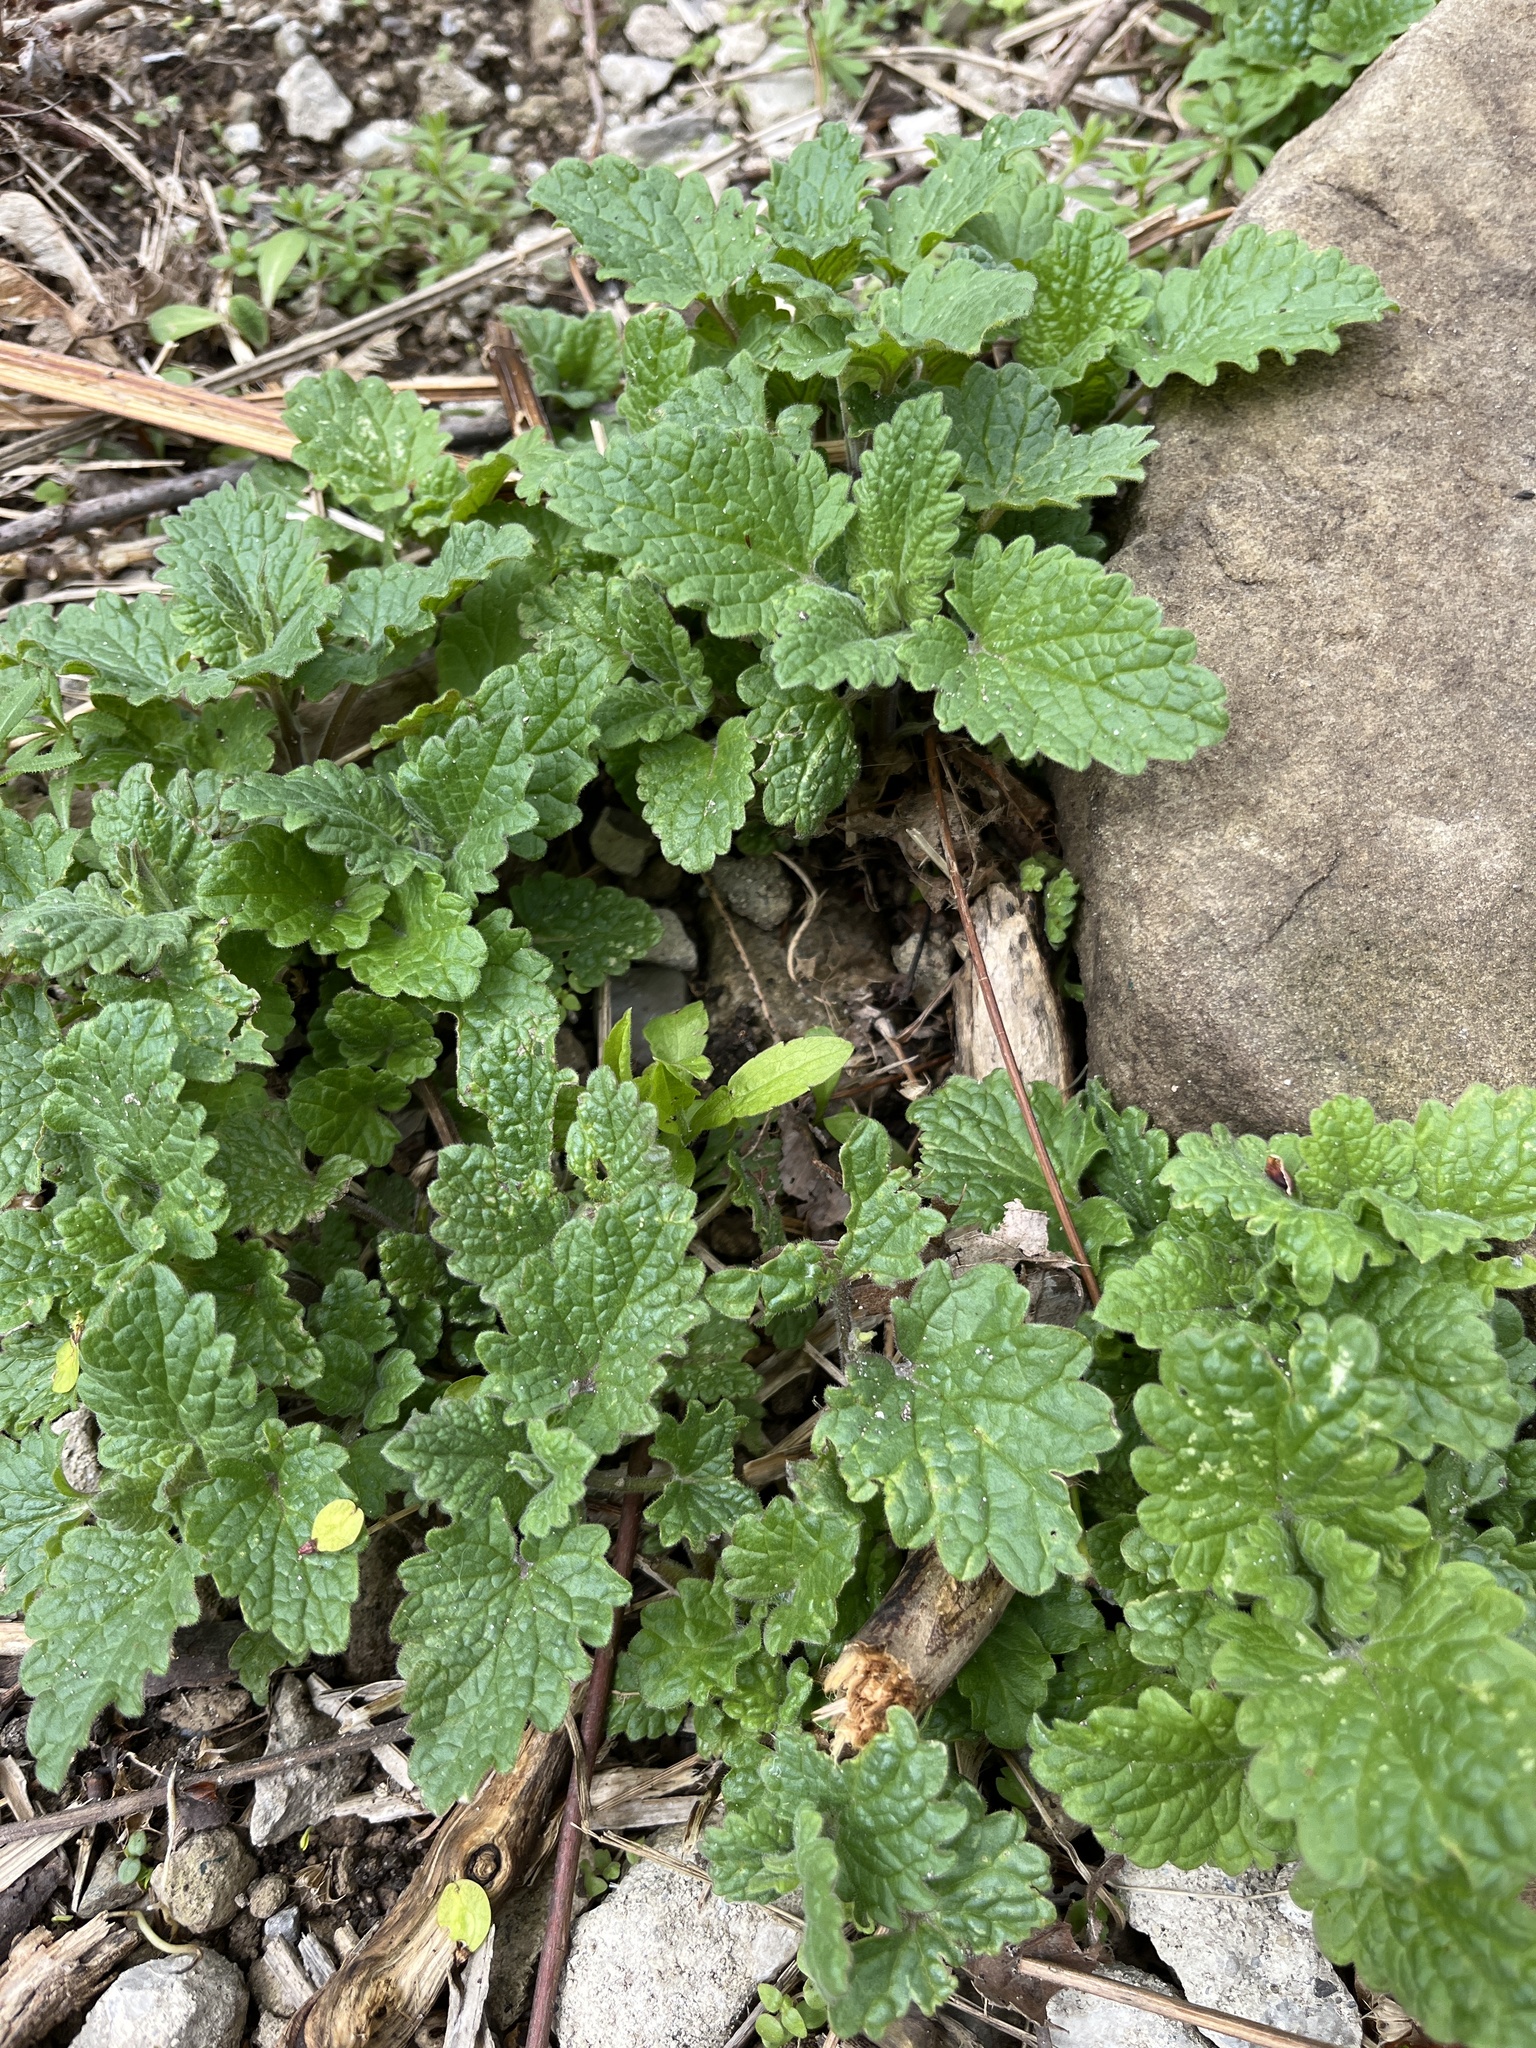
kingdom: Plantae
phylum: Tracheophyta
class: Magnoliopsida
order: Lamiales
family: Lamiaceae
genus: Nepeta
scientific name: Nepeta cataria
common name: Catnip
